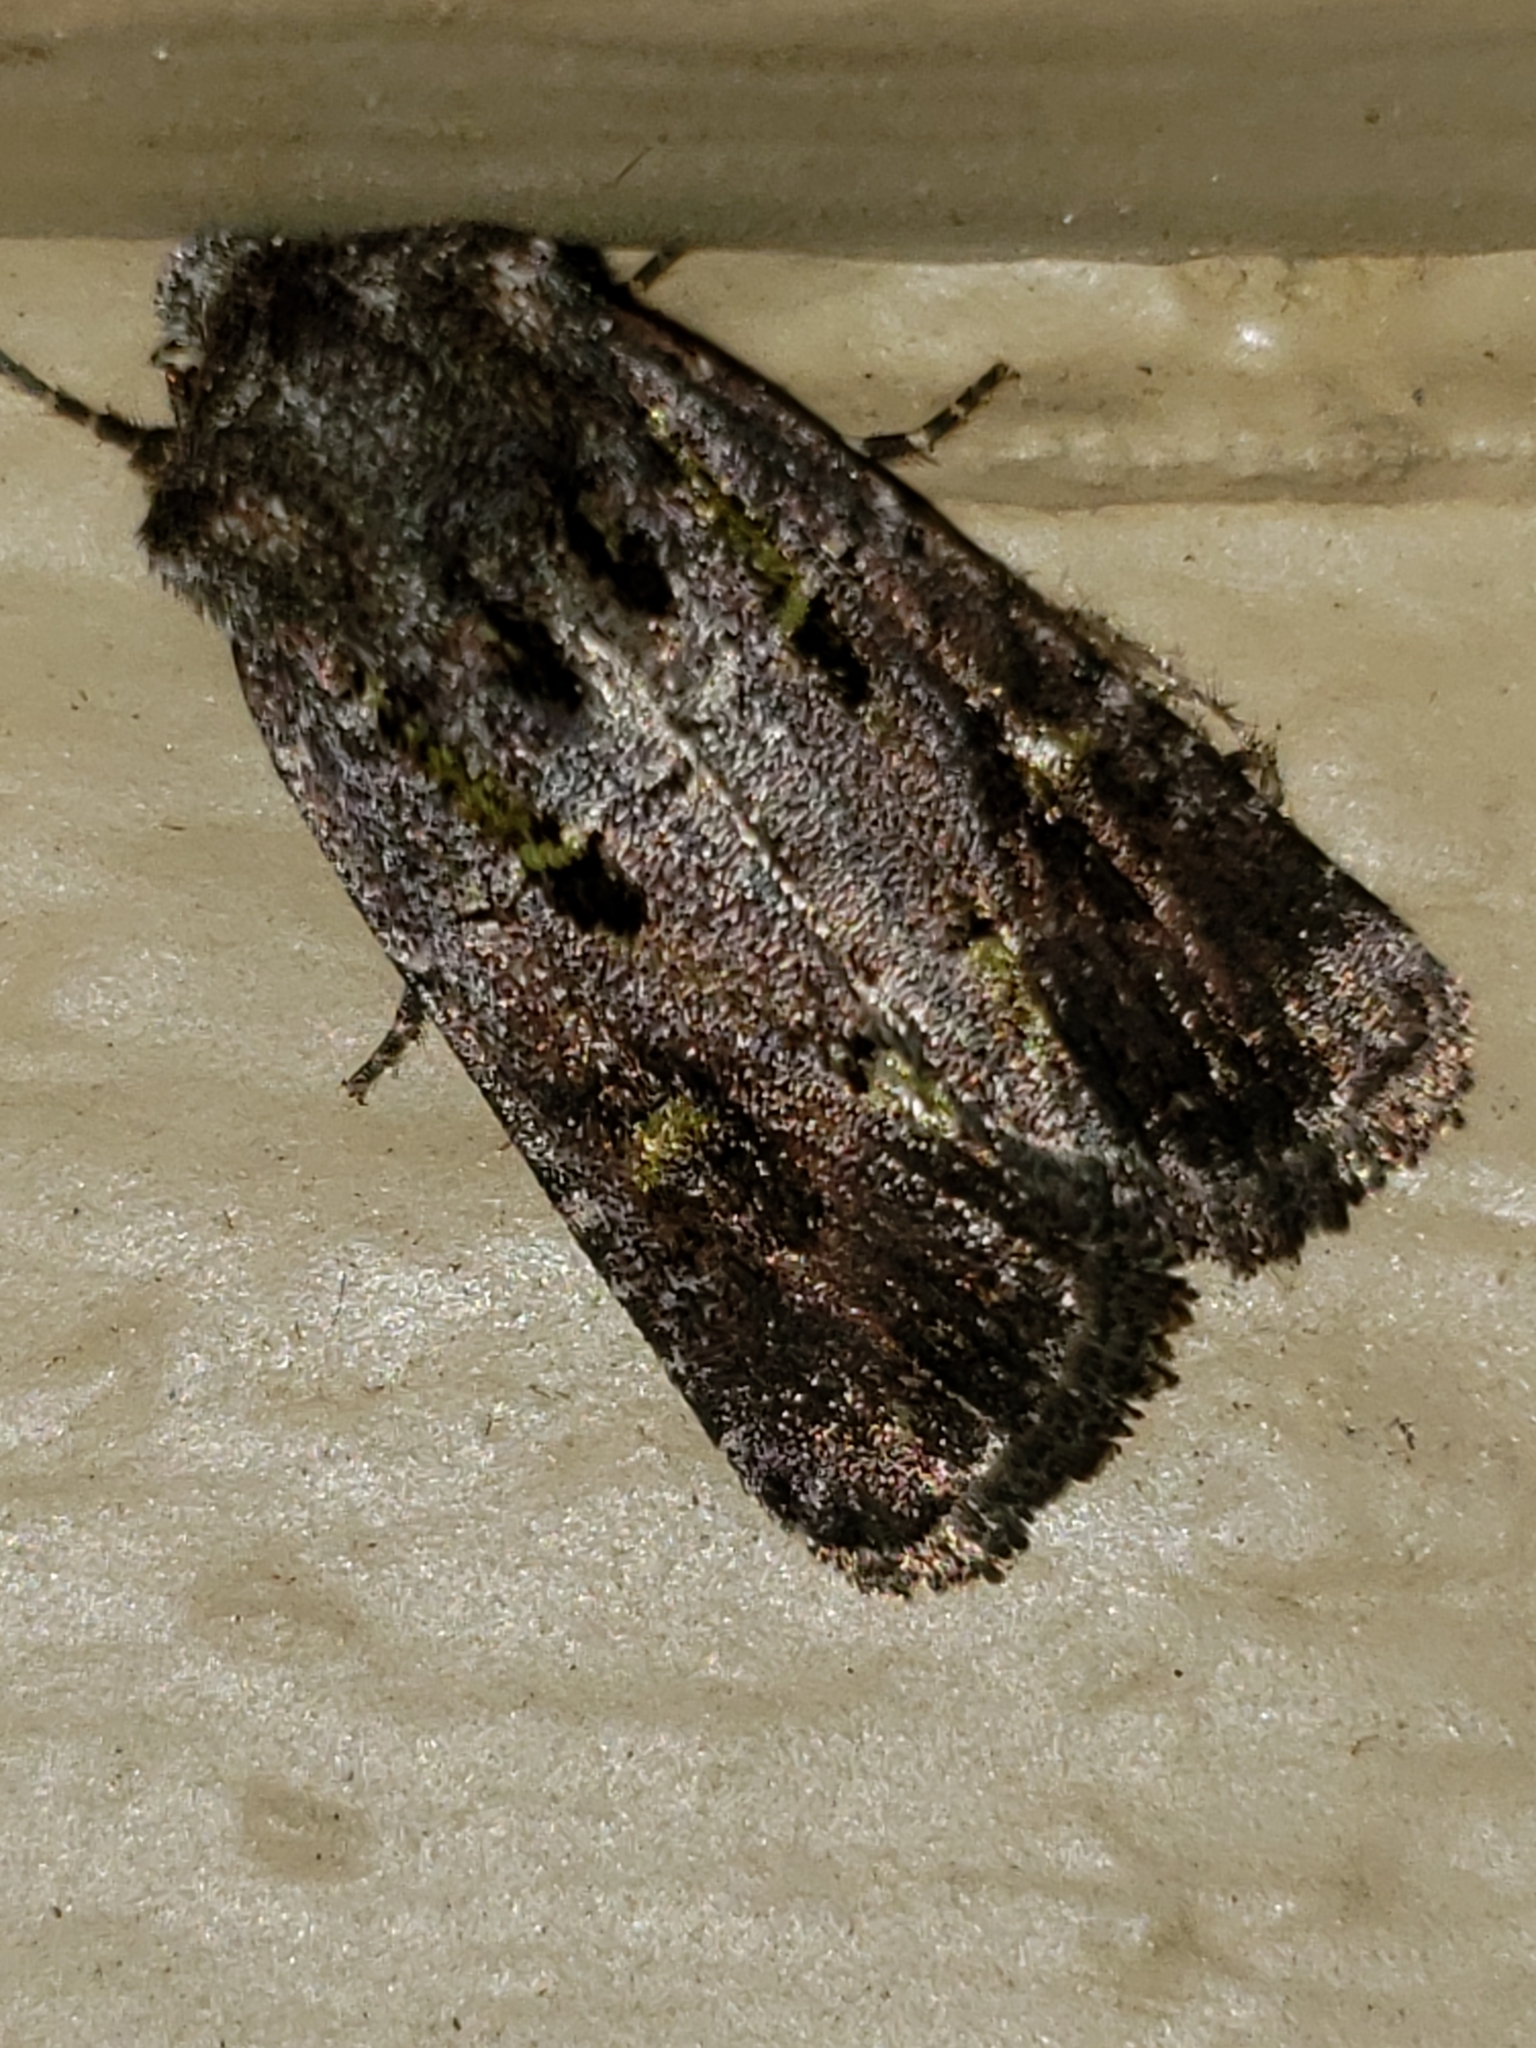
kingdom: Animalia
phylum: Arthropoda
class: Insecta
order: Lepidoptera
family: Noctuidae
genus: Lacinipolia
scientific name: Lacinipolia renigera
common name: Kidney-spotted minor
